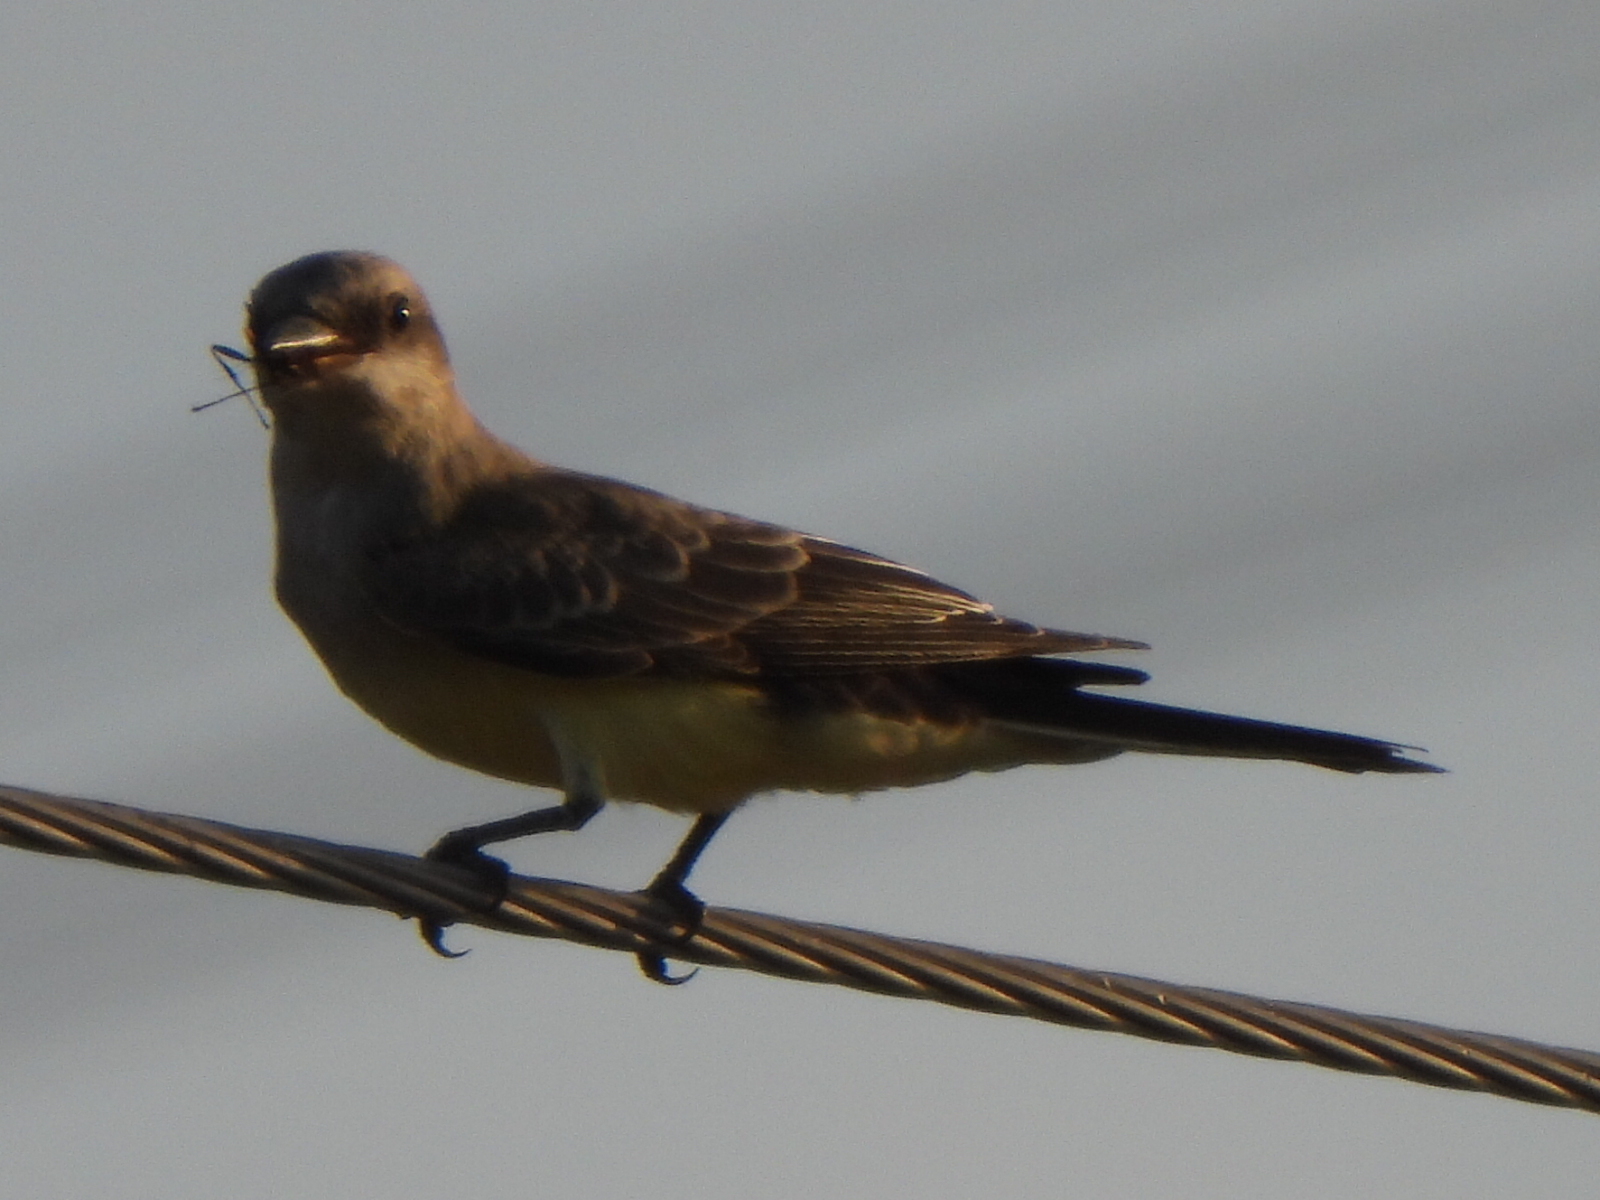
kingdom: Animalia
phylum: Chordata
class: Aves
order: Passeriformes
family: Tyrannidae
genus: Tyrannus
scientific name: Tyrannus verticalis
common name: Western kingbird
